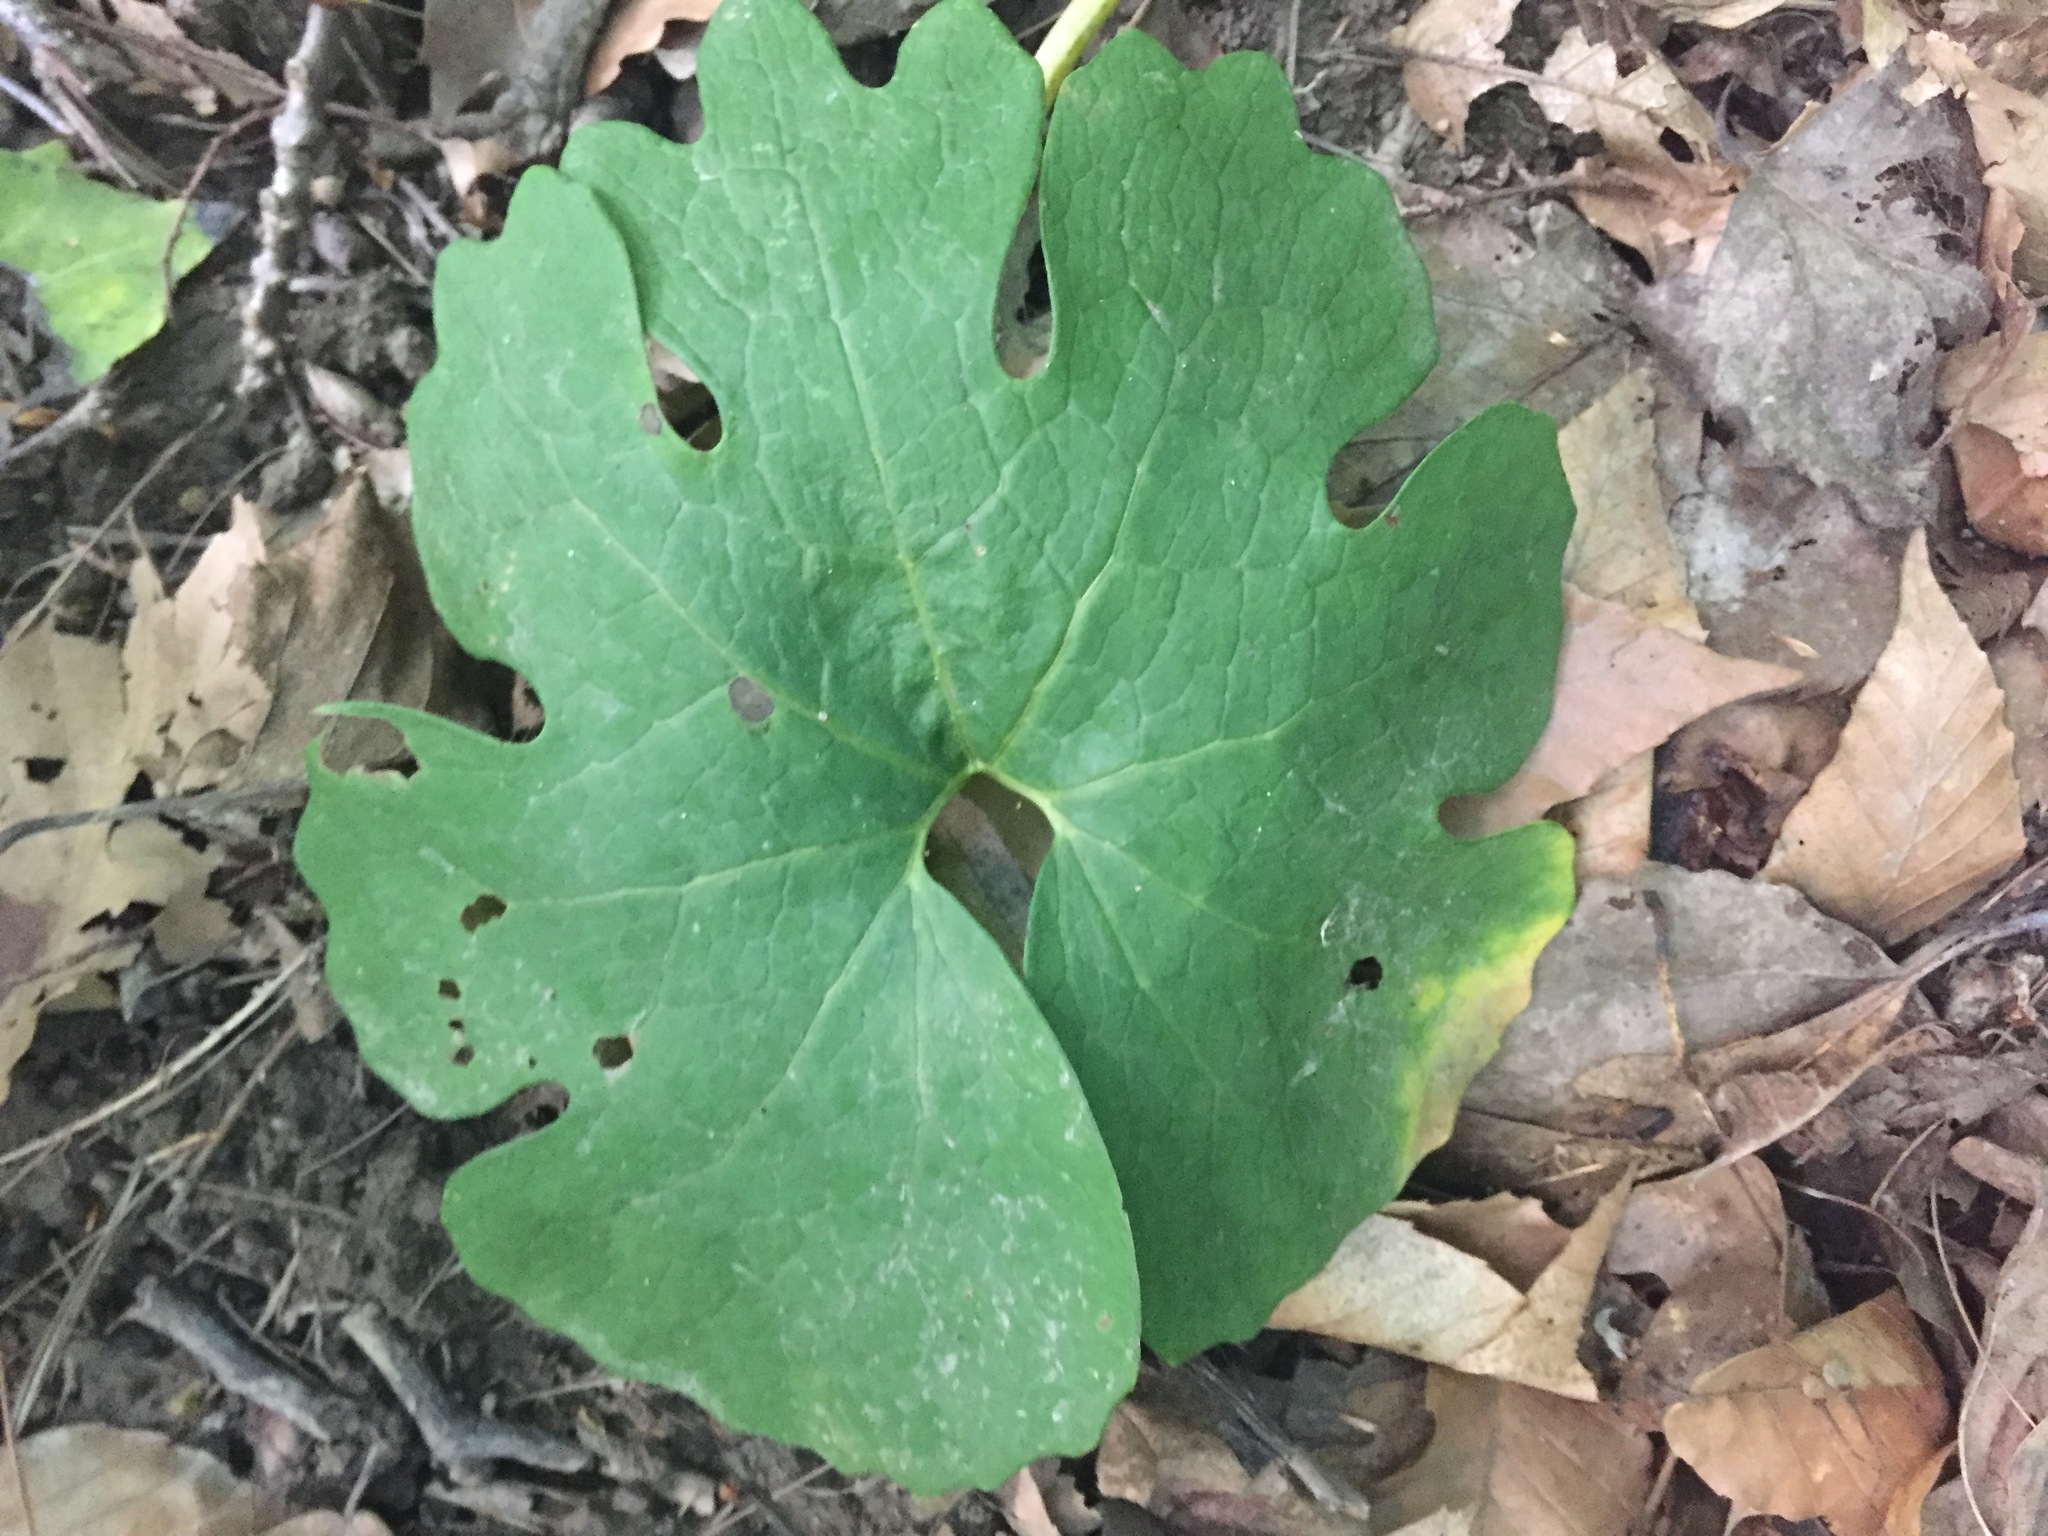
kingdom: Plantae
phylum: Tracheophyta
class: Magnoliopsida
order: Ranunculales
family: Papaveraceae
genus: Sanguinaria
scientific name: Sanguinaria canadensis
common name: Bloodroot
